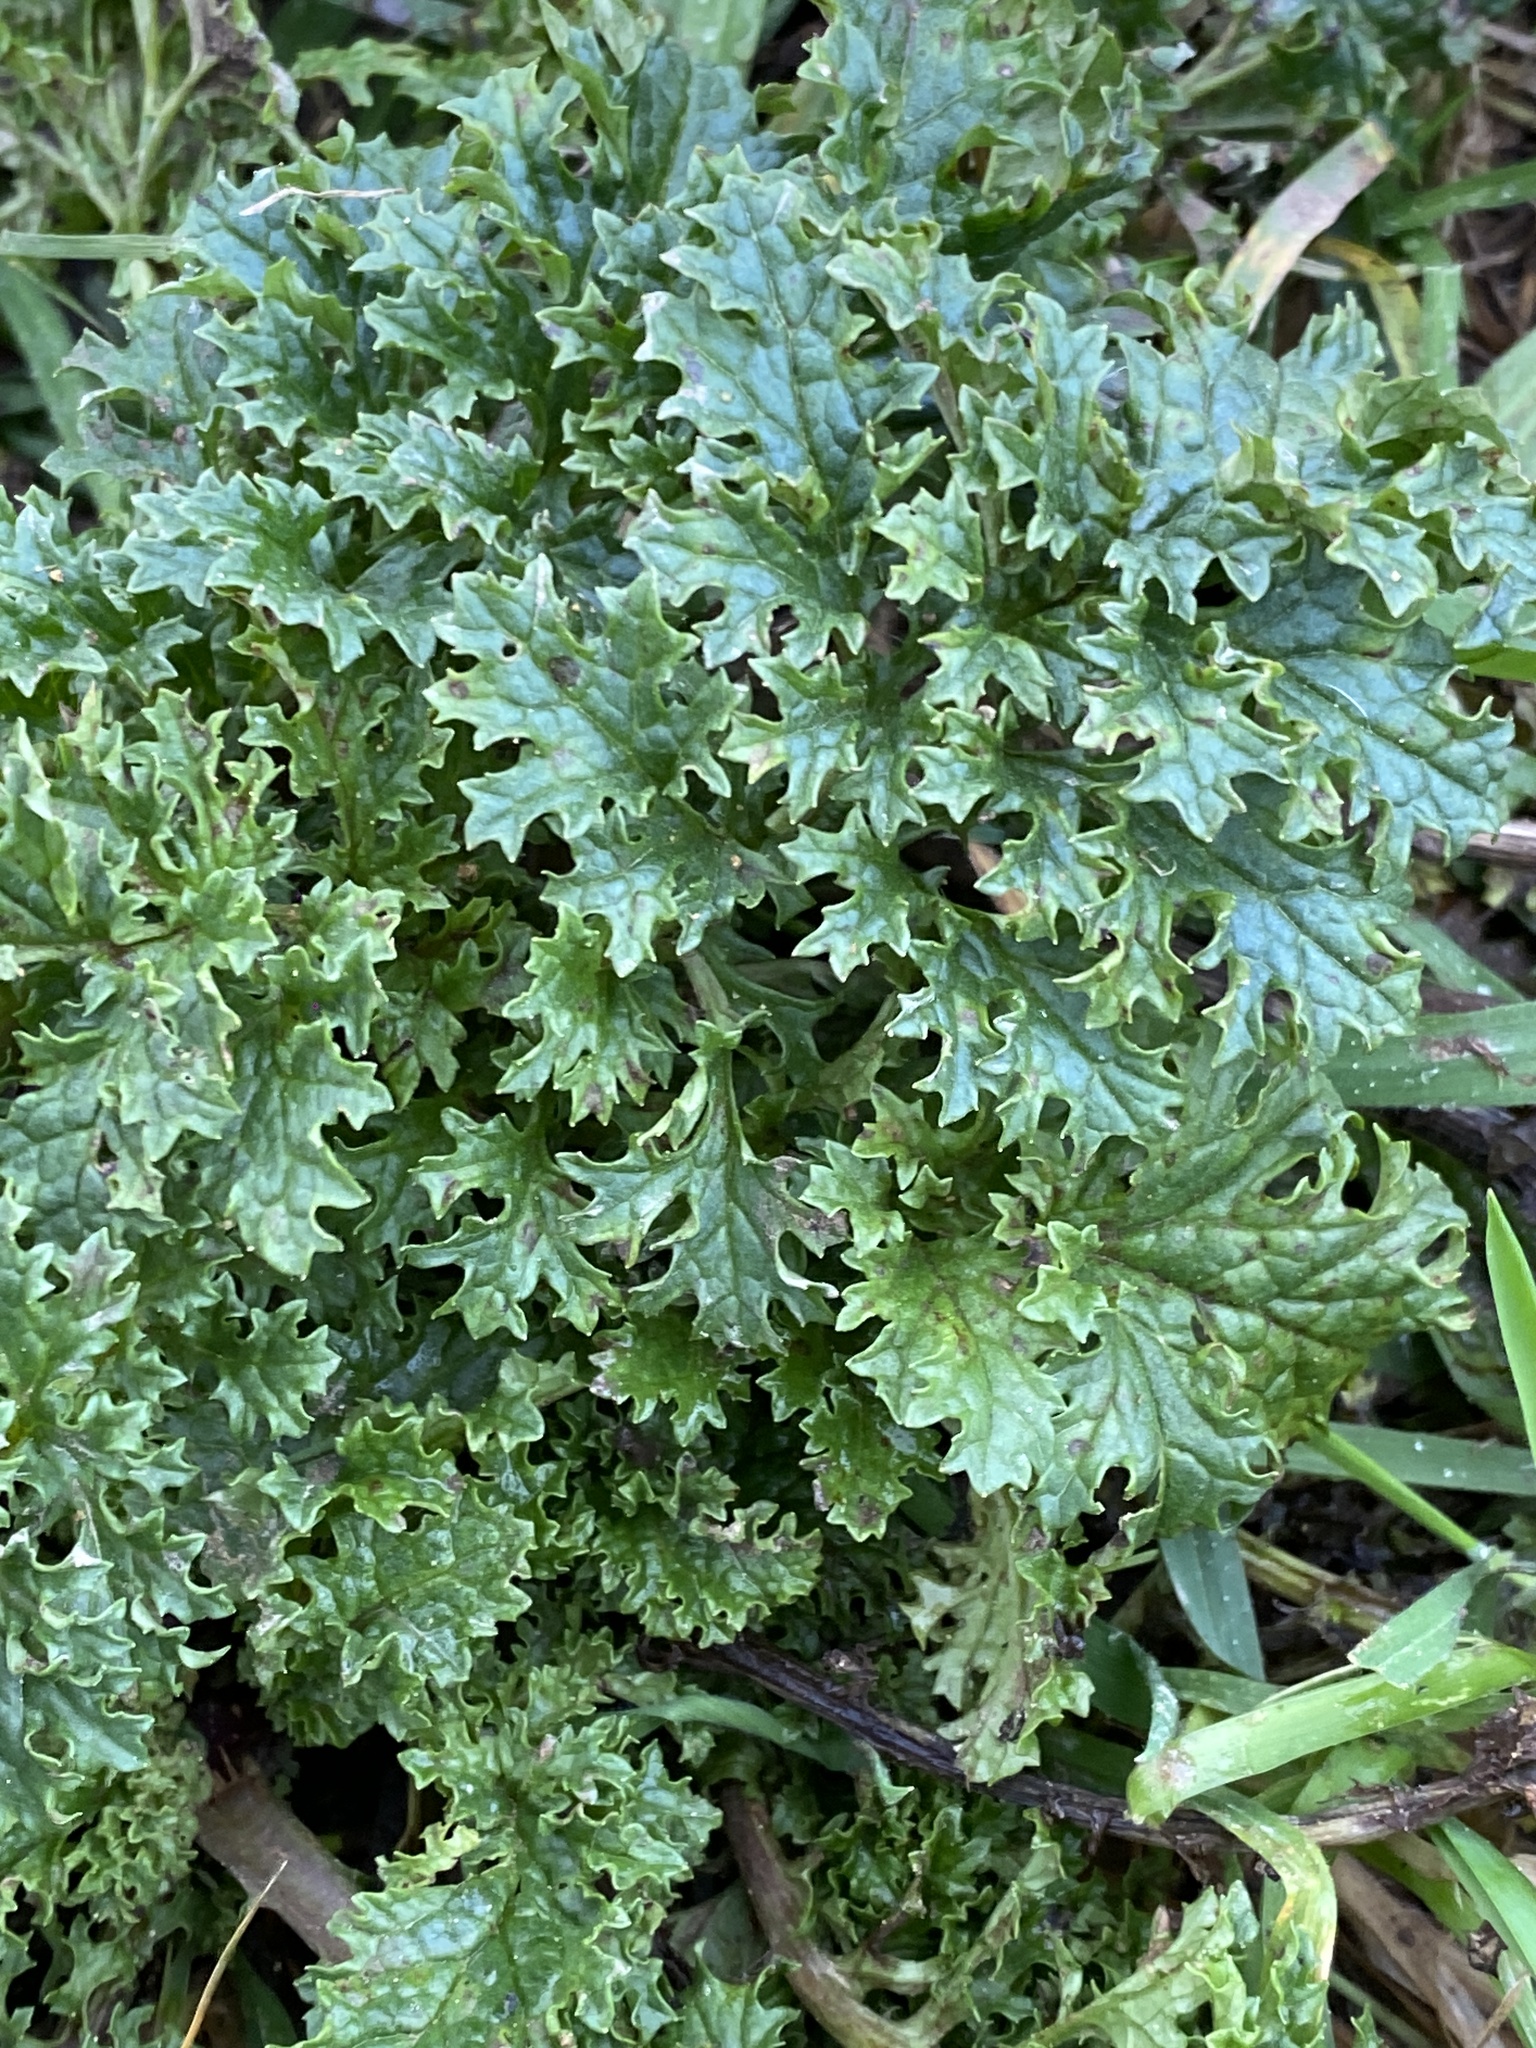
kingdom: Plantae
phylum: Tracheophyta
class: Magnoliopsida
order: Asterales
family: Asteraceae
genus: Jacobaea
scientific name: Jacobaea vulgaris
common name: Stinking willie
